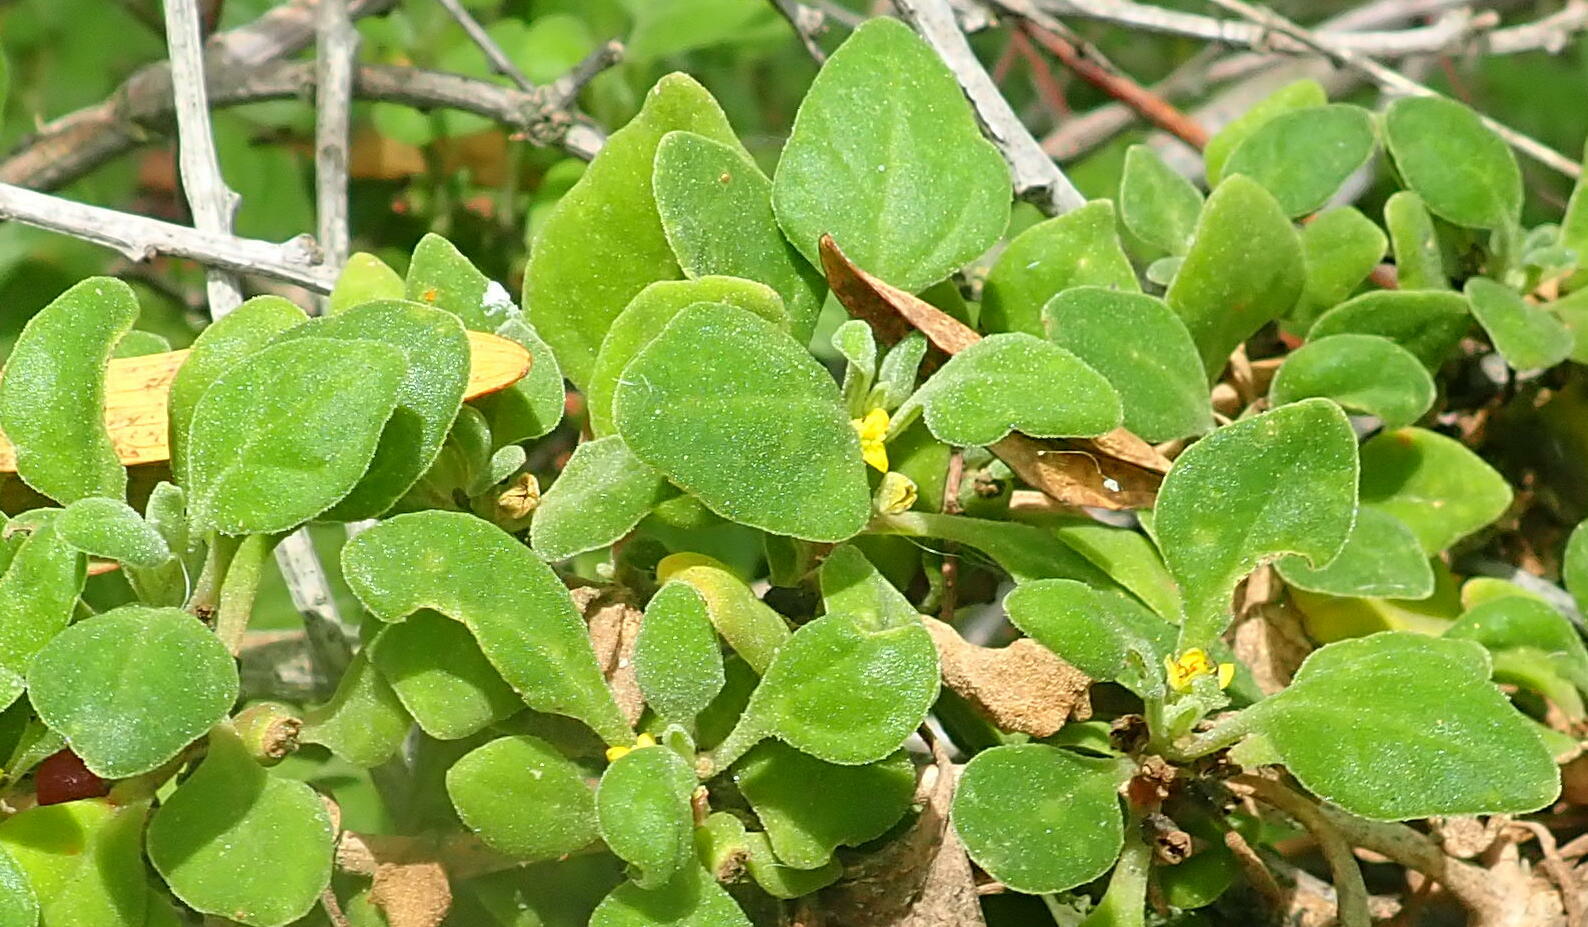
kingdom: Plantae
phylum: Tracheophyta
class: Magnoliopsida
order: Caryophyllales
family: Aizoaceae
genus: Tetragonia
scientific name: Tetragonia implexicoma
